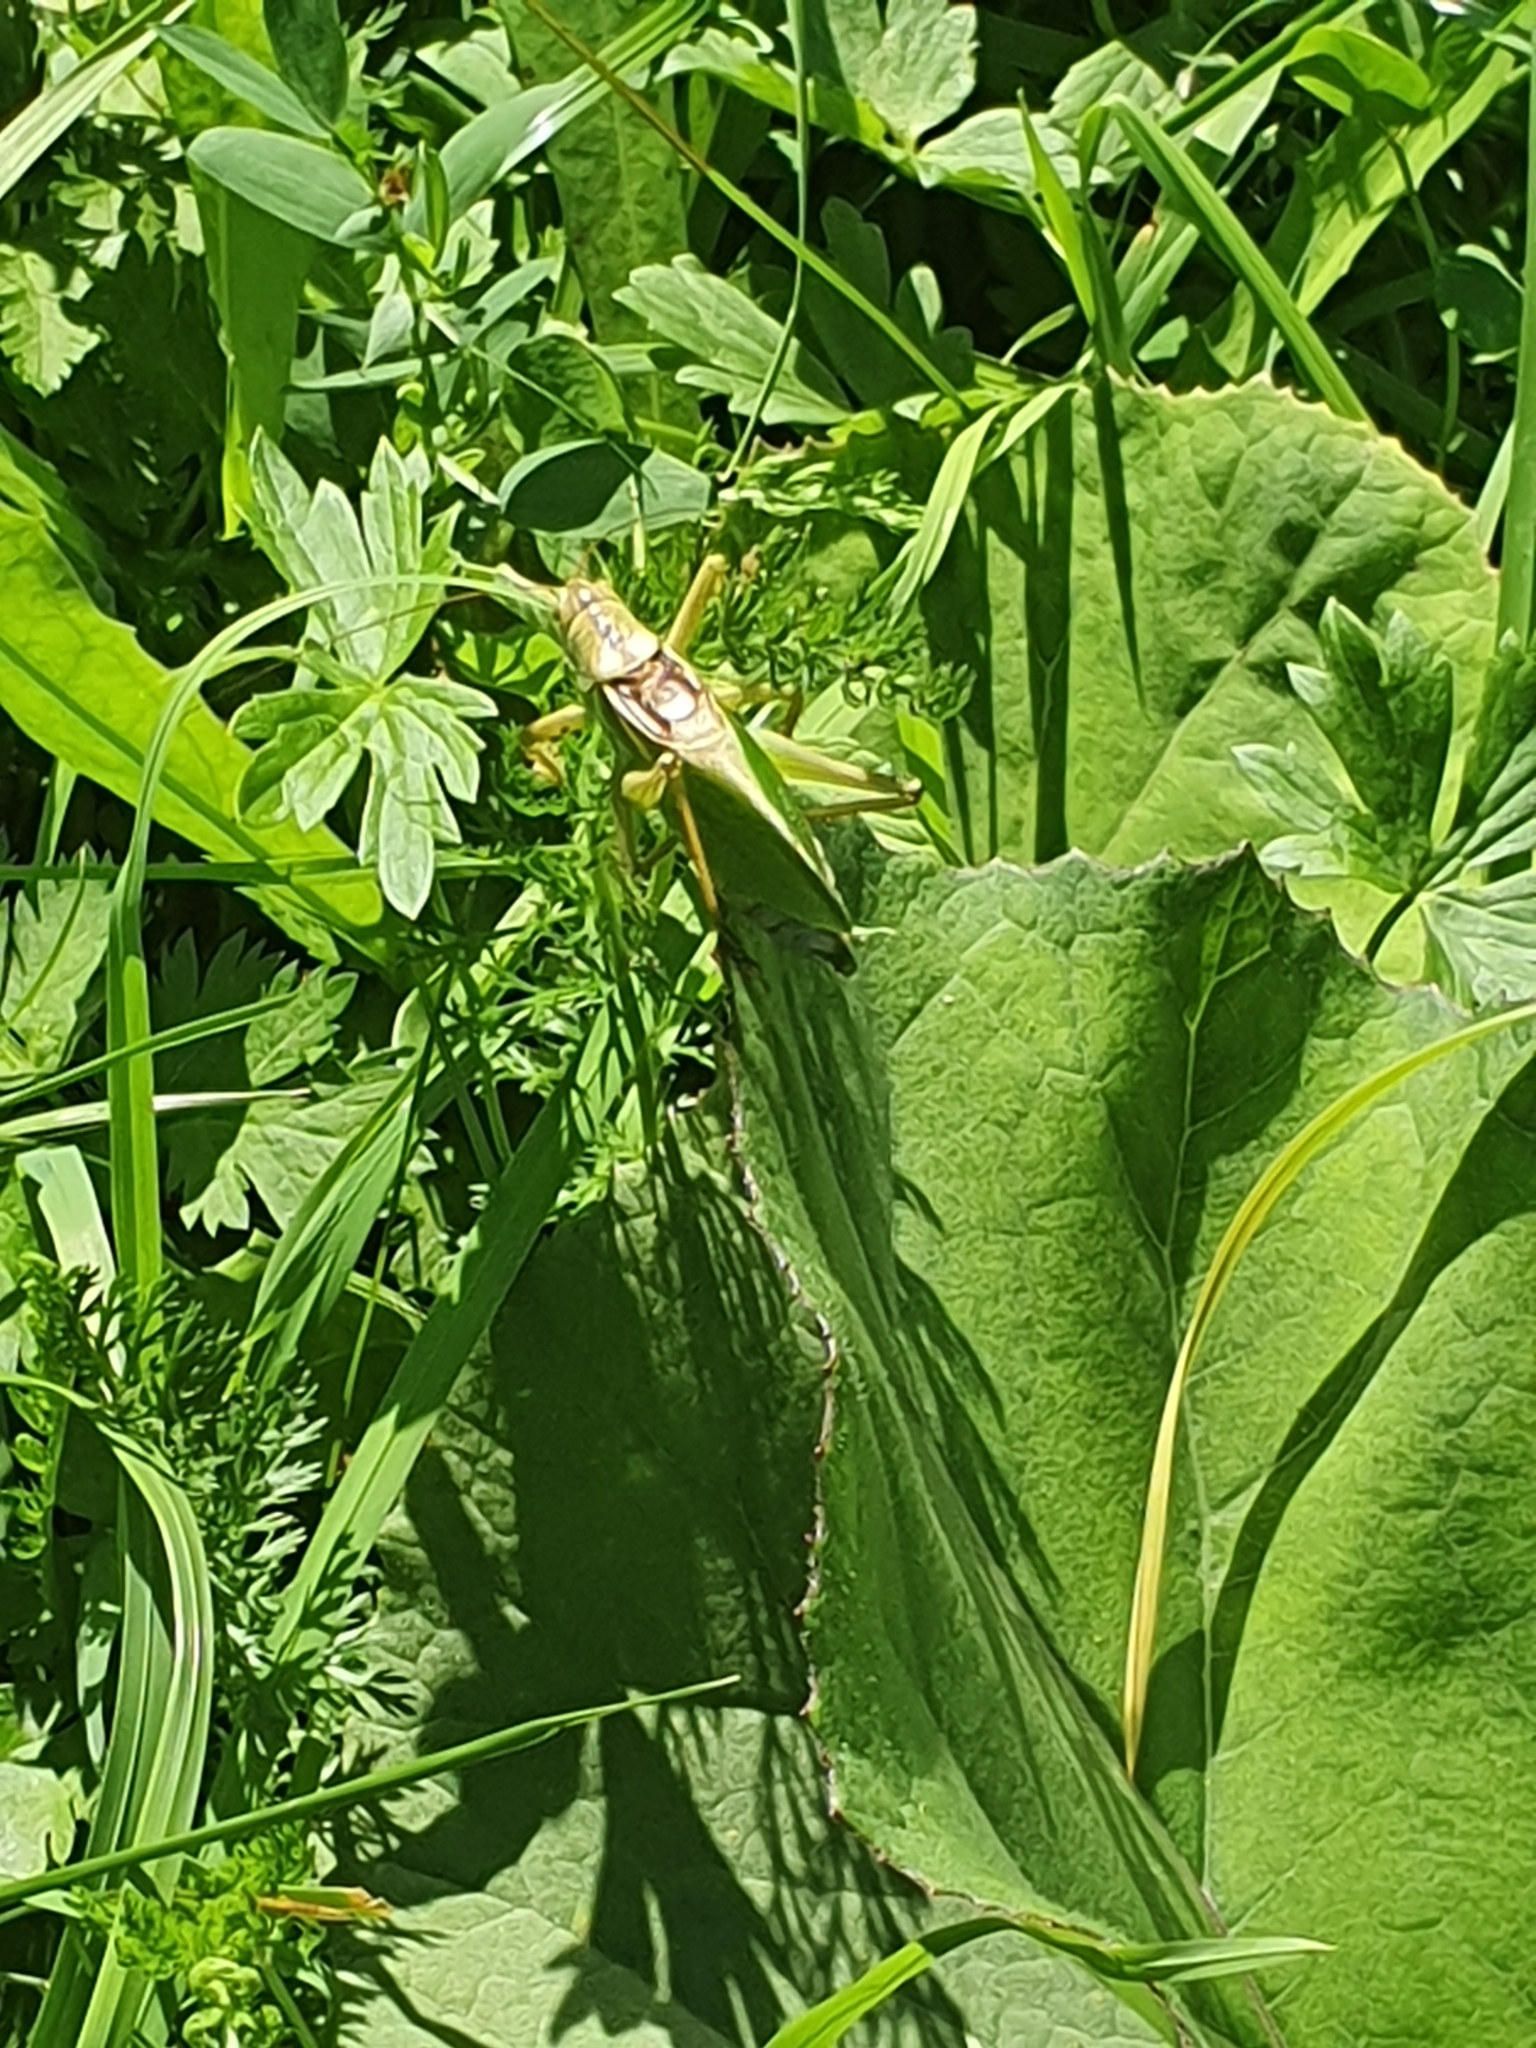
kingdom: Animalia
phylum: Arthropoda
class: Insecta
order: Orthoptera
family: Tettigoniidae
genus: Tettigonia
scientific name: Tettigonia cantans
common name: Upland green bush-cricket
